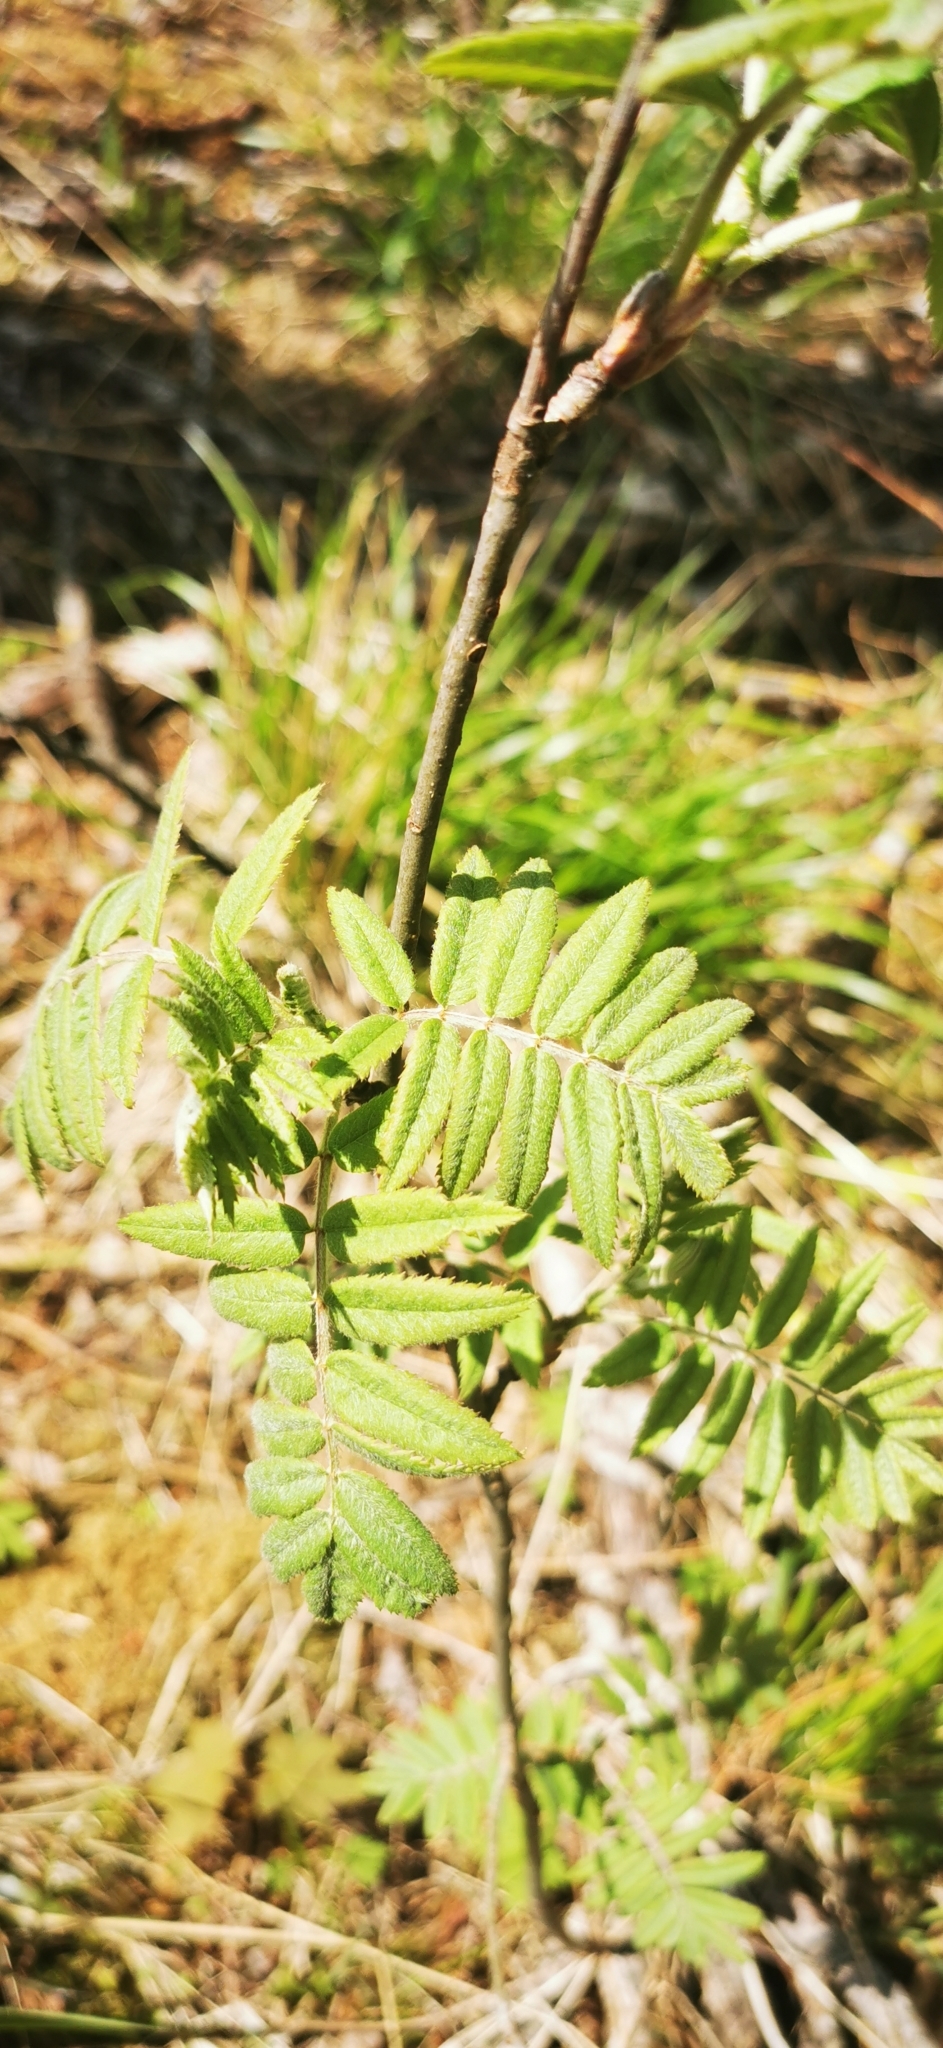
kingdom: Plantae
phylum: Tracheophyta
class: Magnoliopsida
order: Rosales
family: Rosaceae
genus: Sorbus
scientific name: Sorbus aucuparia
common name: Rowan
